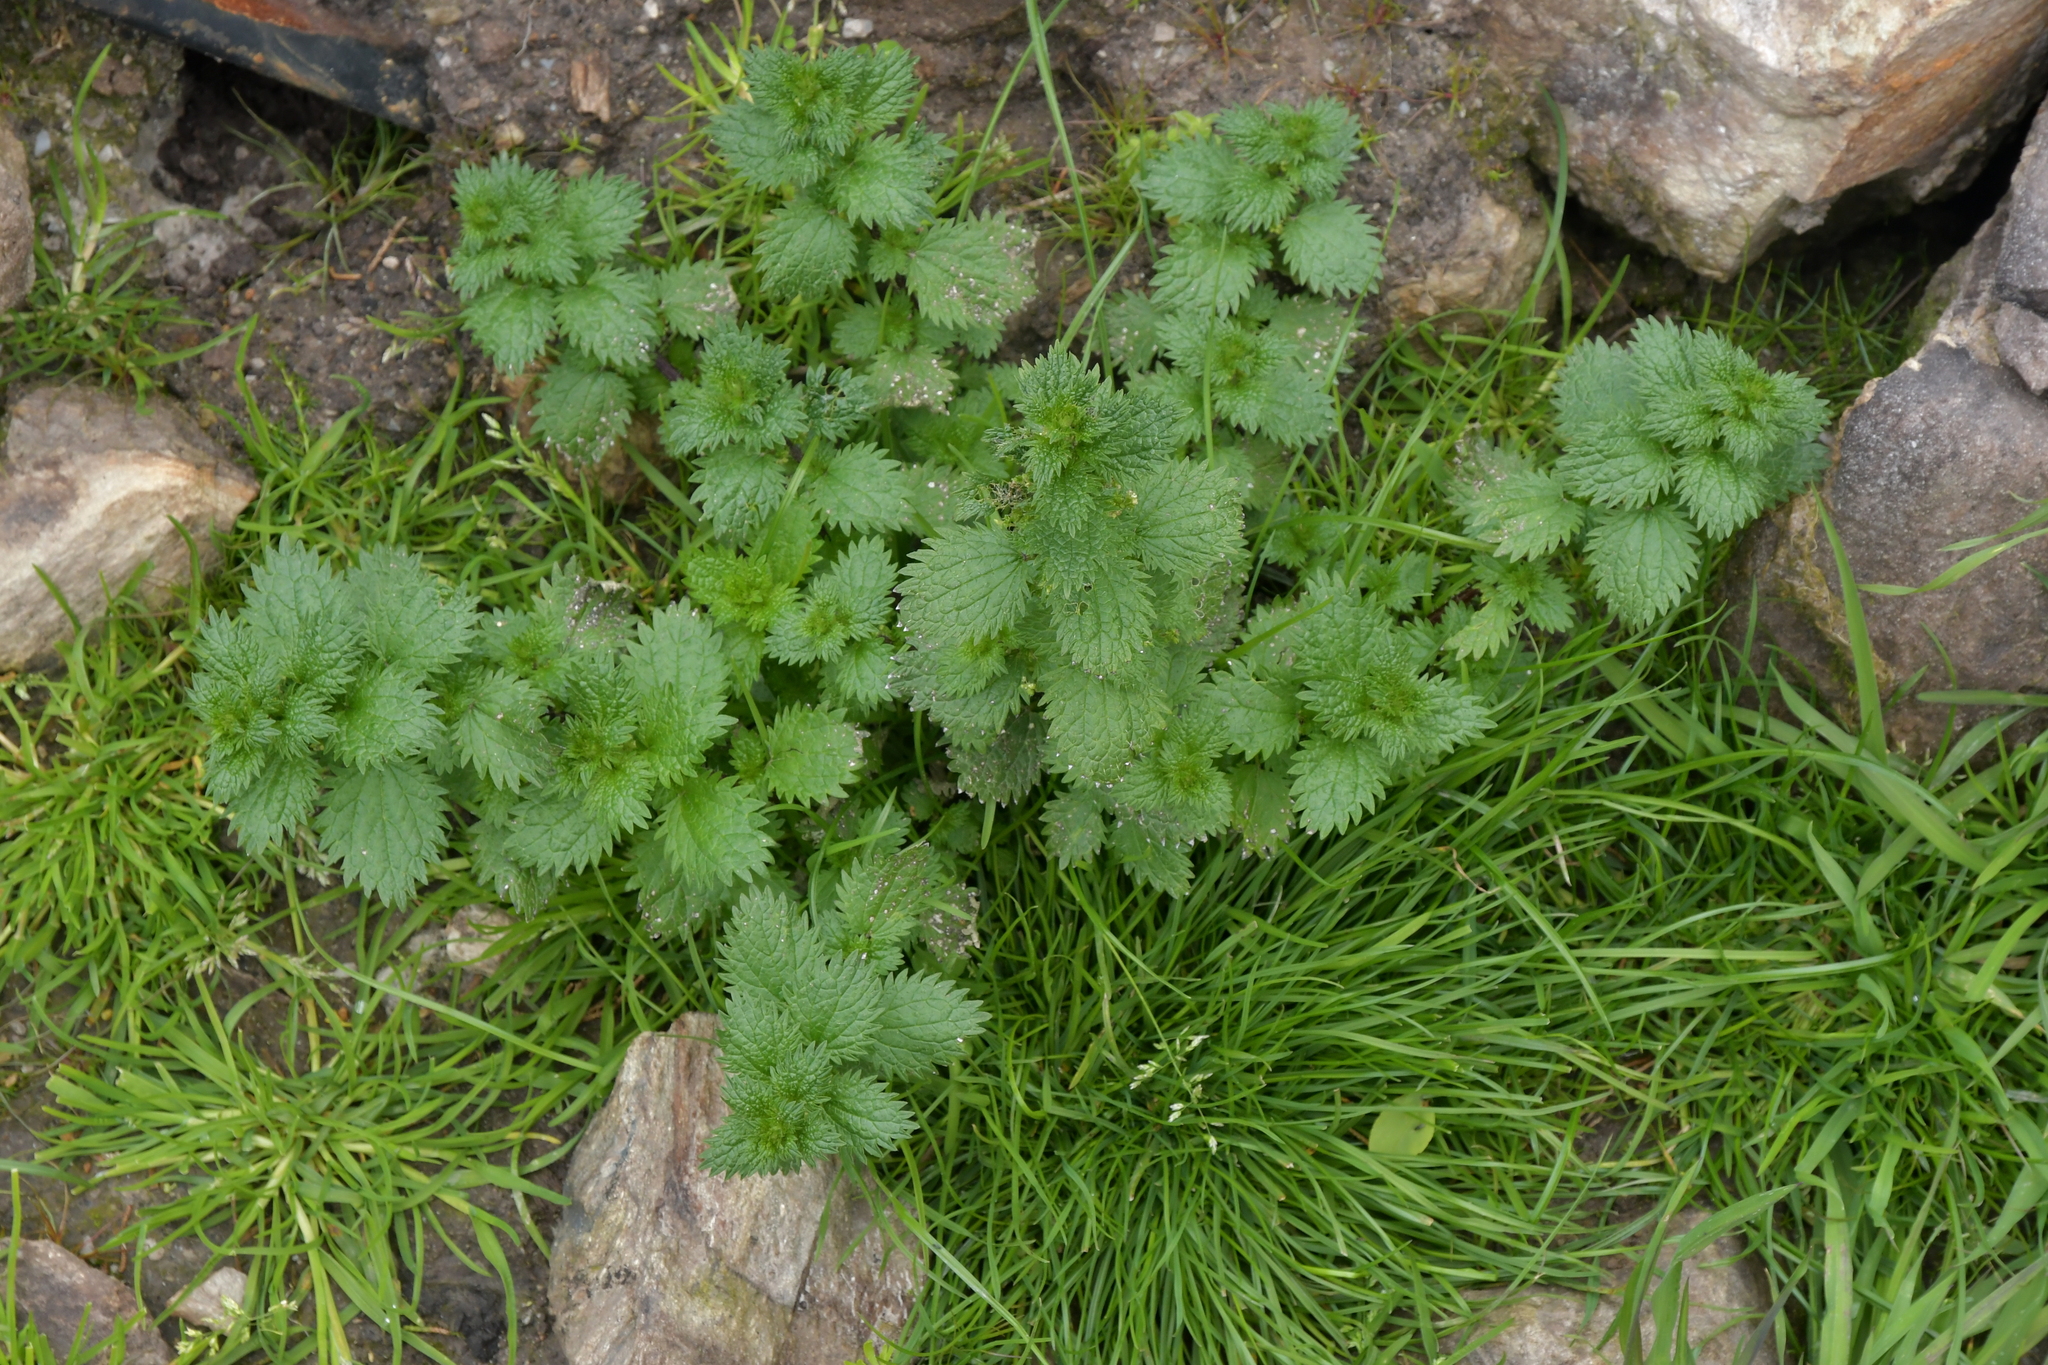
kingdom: Plantae
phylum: Tracheophyta
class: Magnoliopsida
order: Rosales
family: Urticaceae
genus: Urtica
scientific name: Urtica urens
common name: Dwarf nettle
